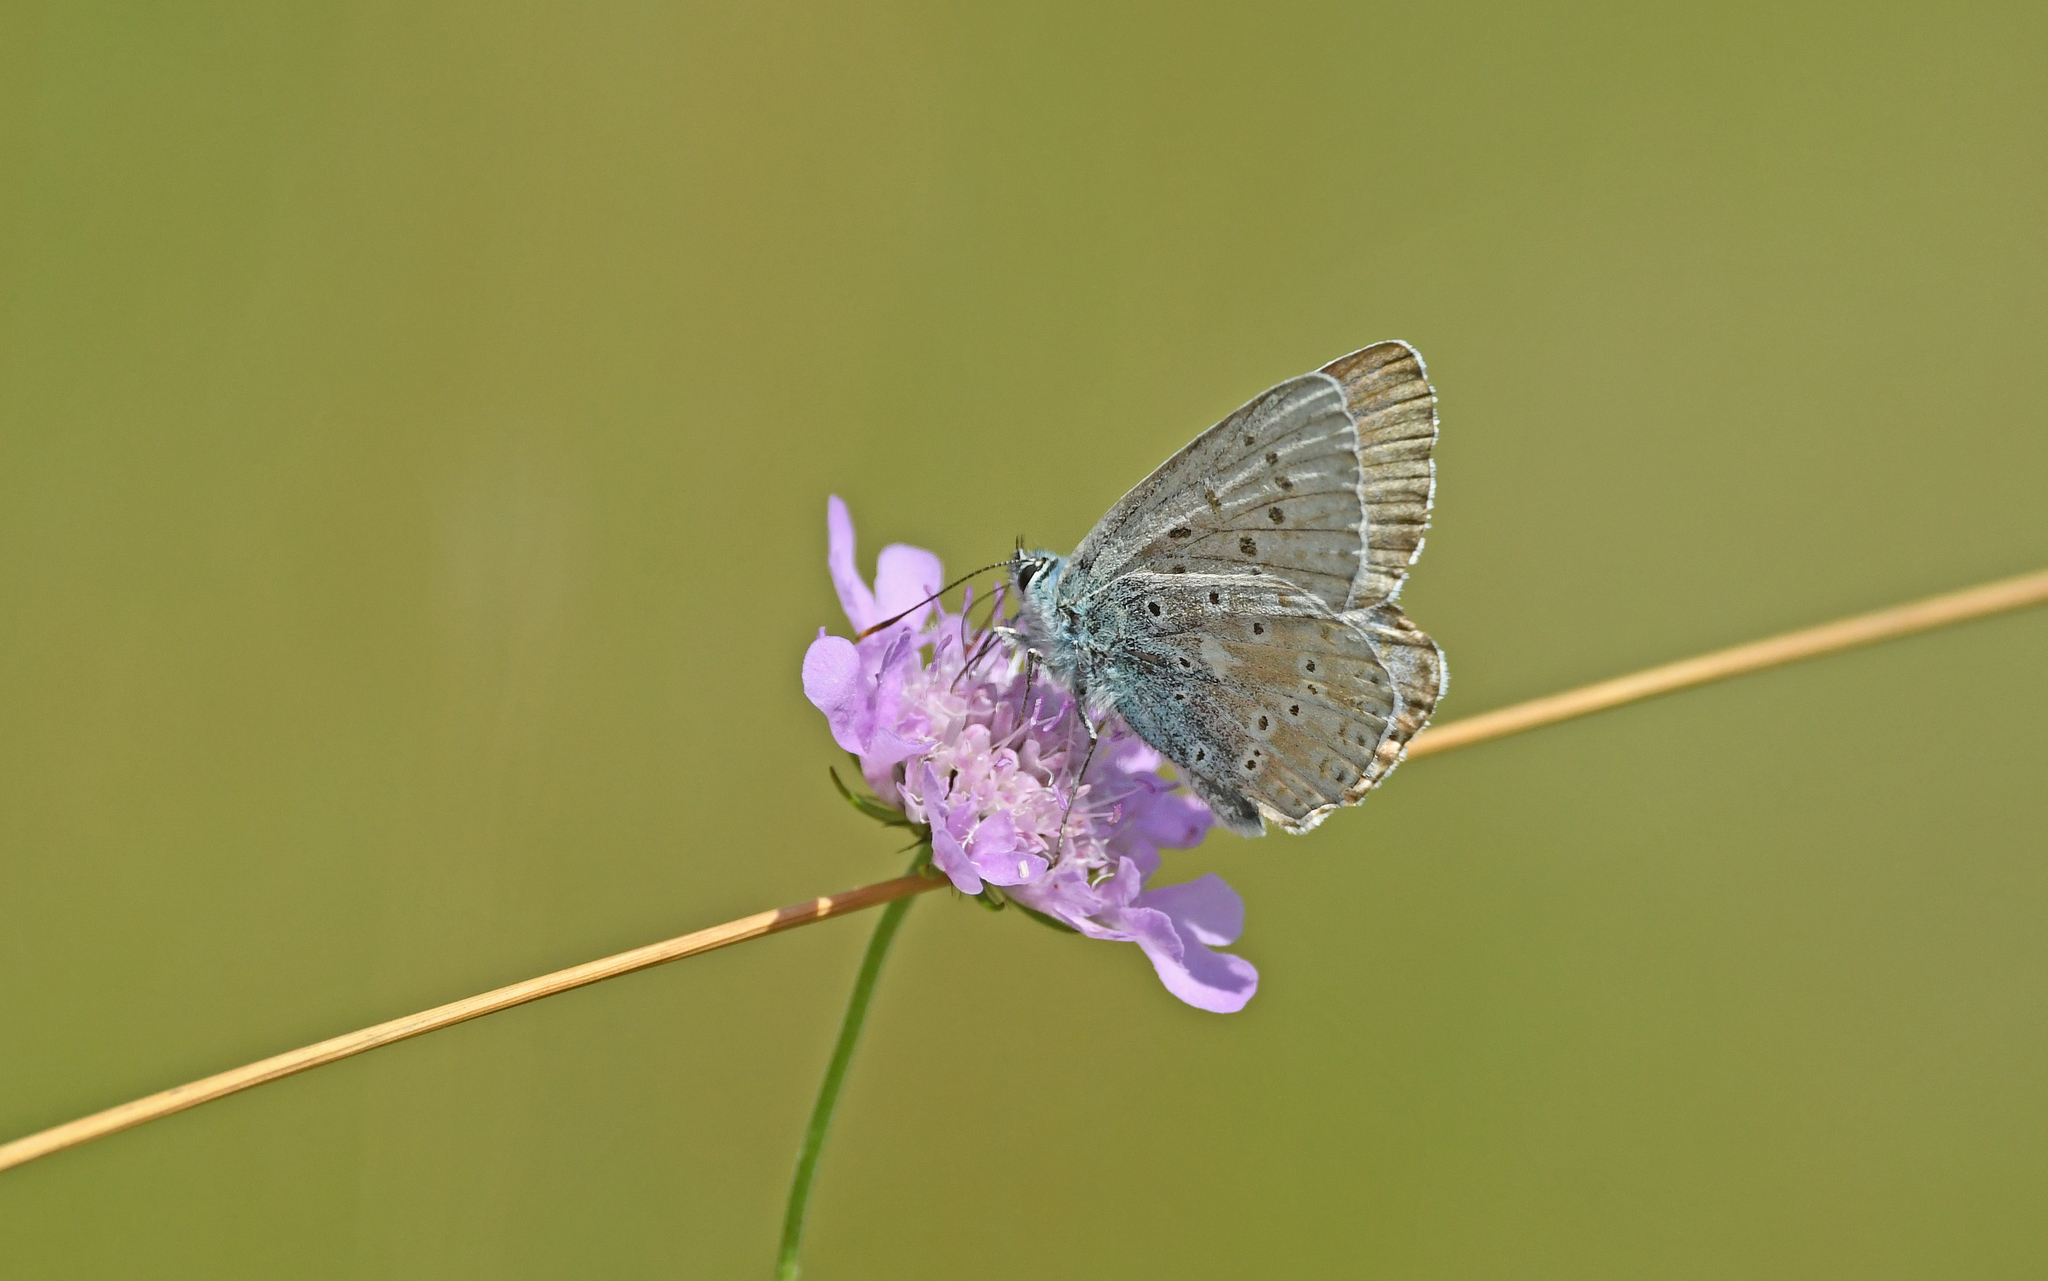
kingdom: Animalia
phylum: Arthropoda
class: Insecta
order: Lepidoptera
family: Lycaenidae
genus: Lysandra
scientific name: Lysandra coridon
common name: Chalkhill blue
